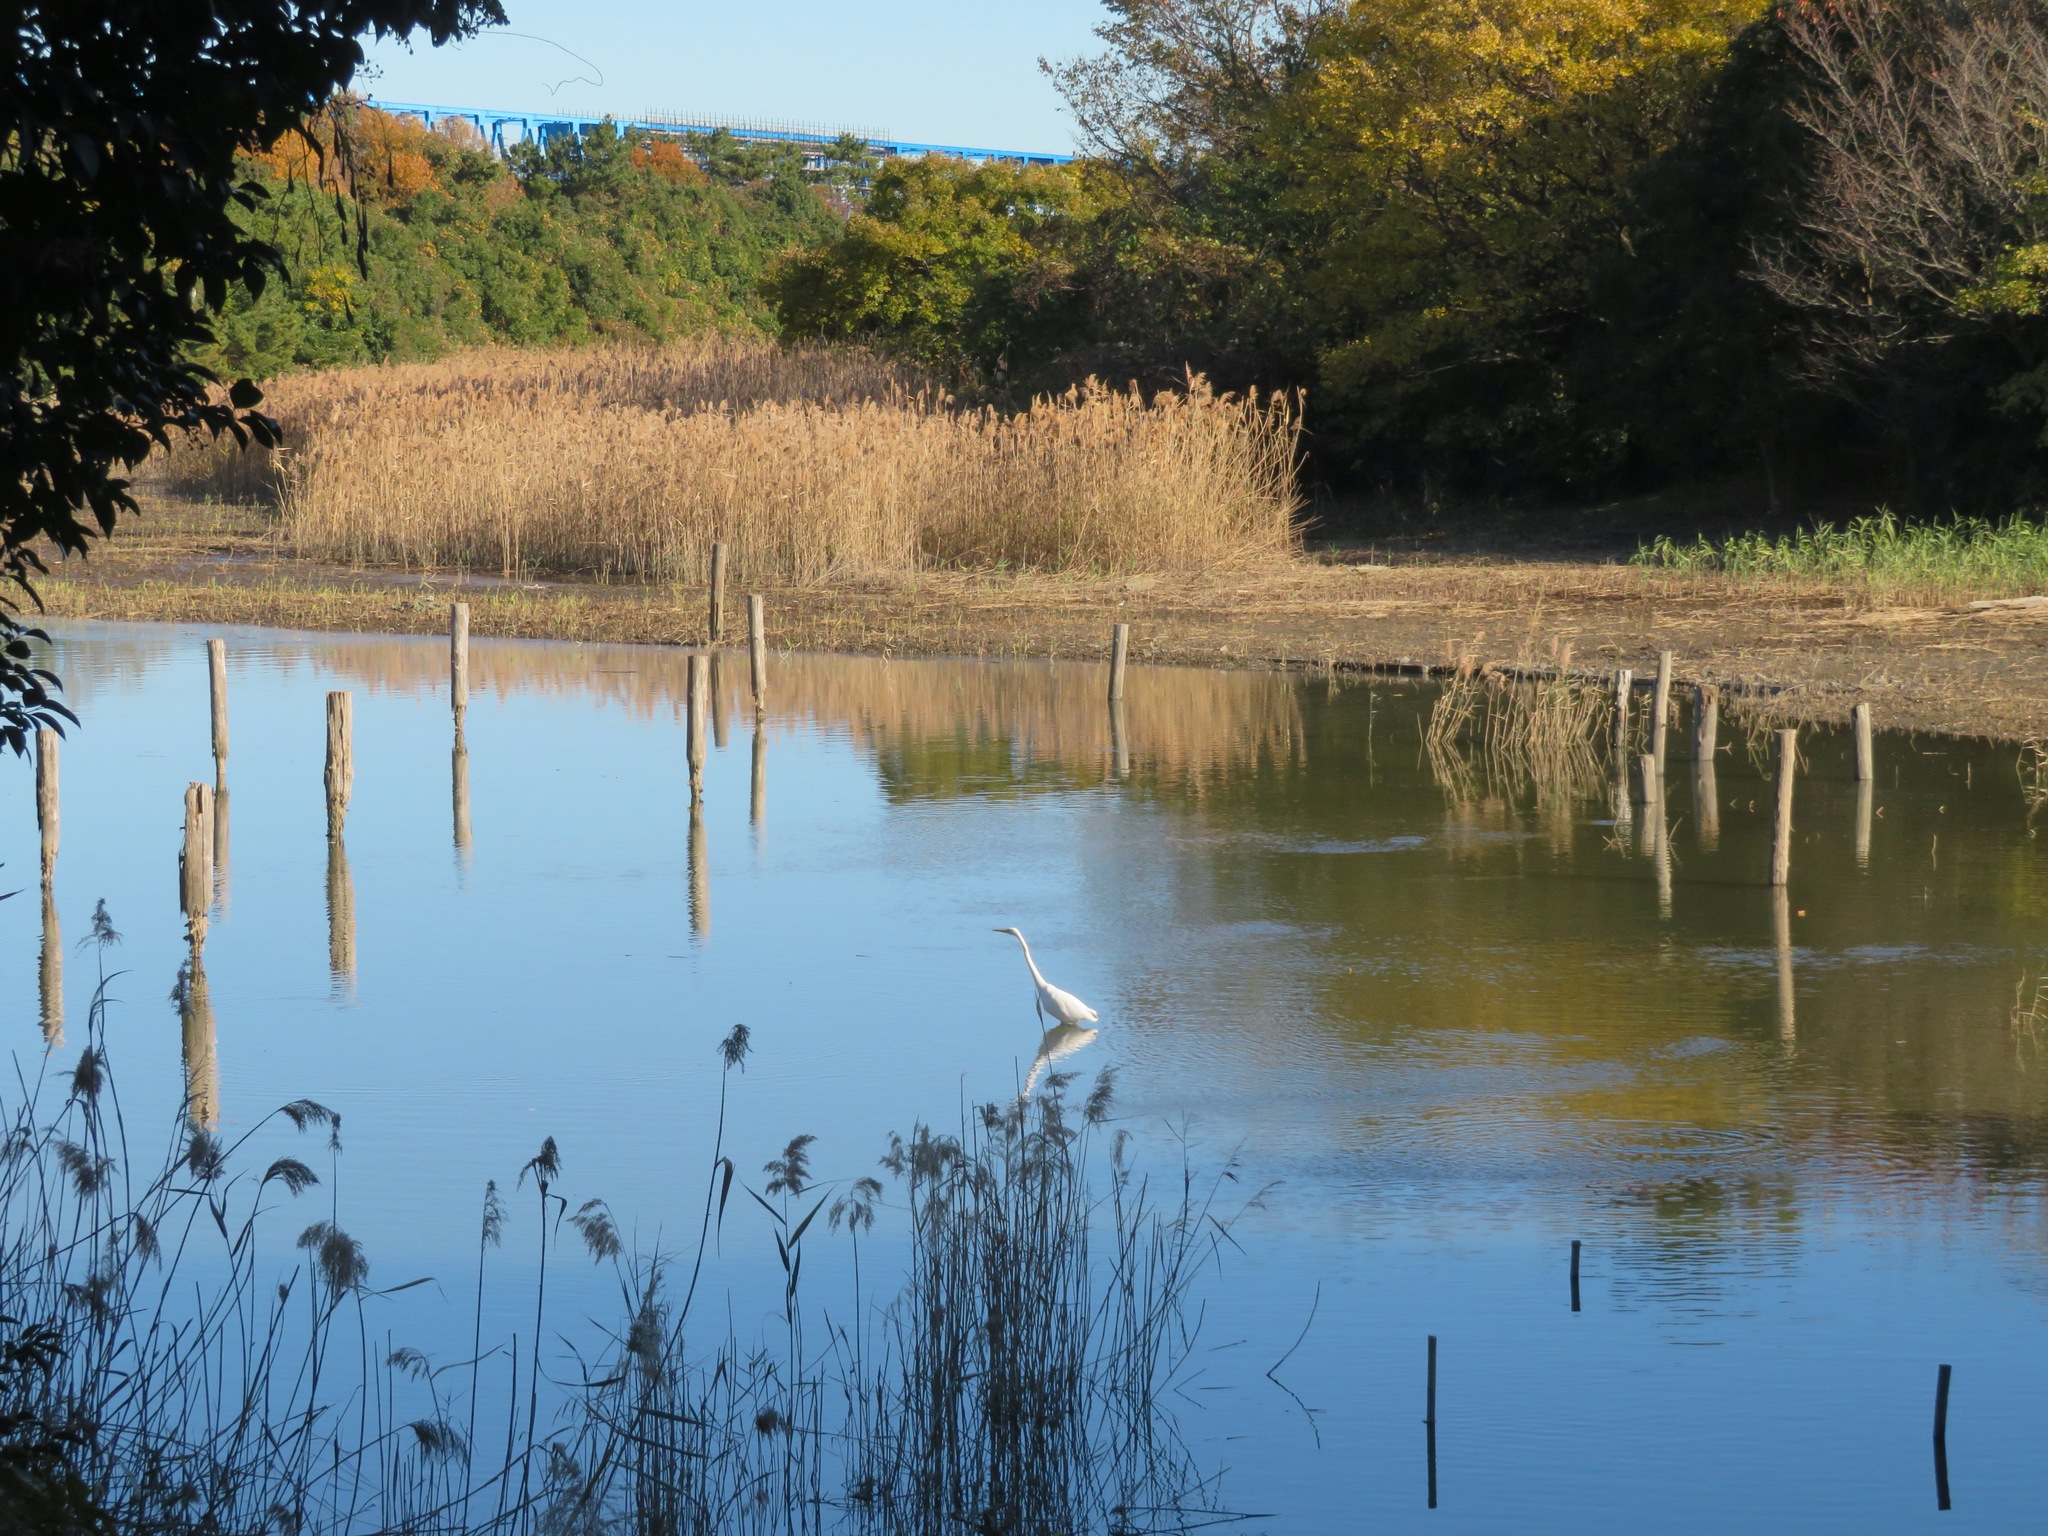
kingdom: Animalia
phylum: Chordata
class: Aves
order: Pelecaniformes
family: Ardeidae
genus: Ardea
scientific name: Ardea alba
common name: Great egret
